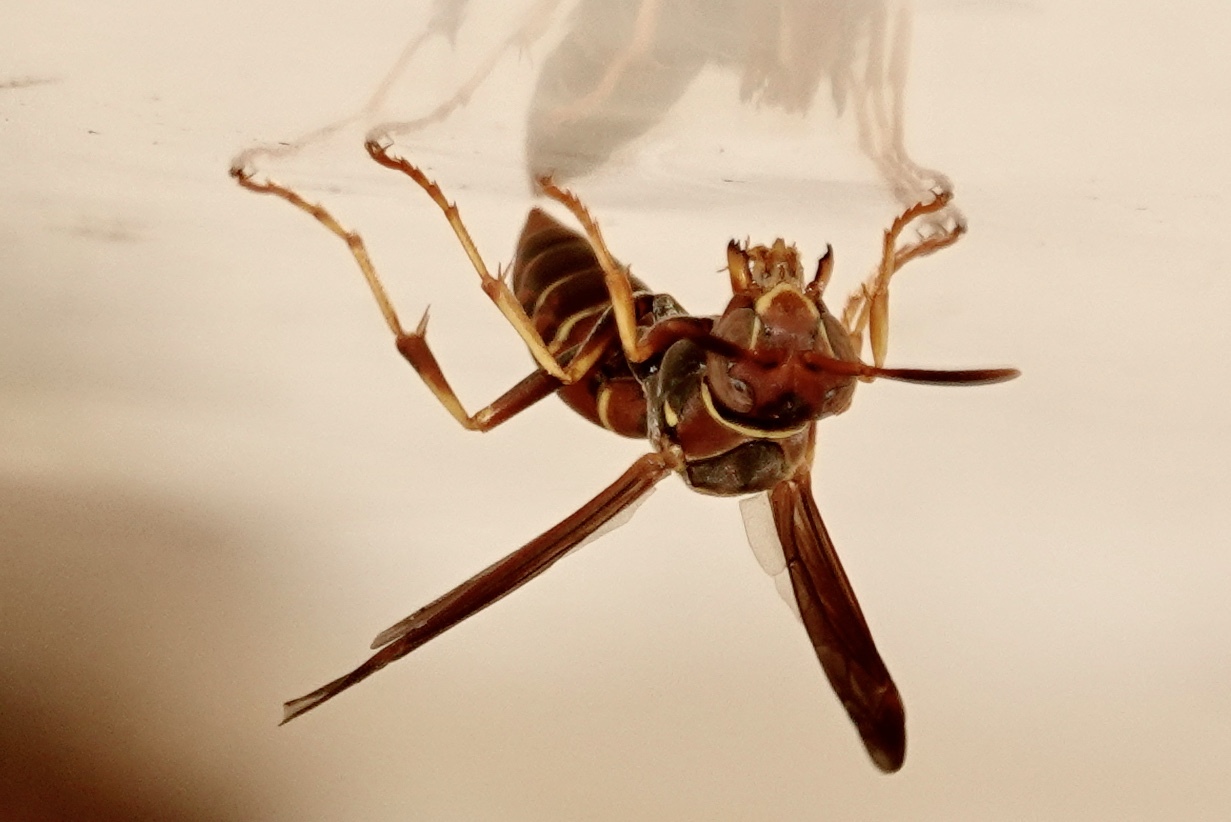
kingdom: Animalia
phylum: Arthropoda
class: Insecta
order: Hymenoptera
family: Eumenidae
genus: Polistes
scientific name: Polistes dorsalis
